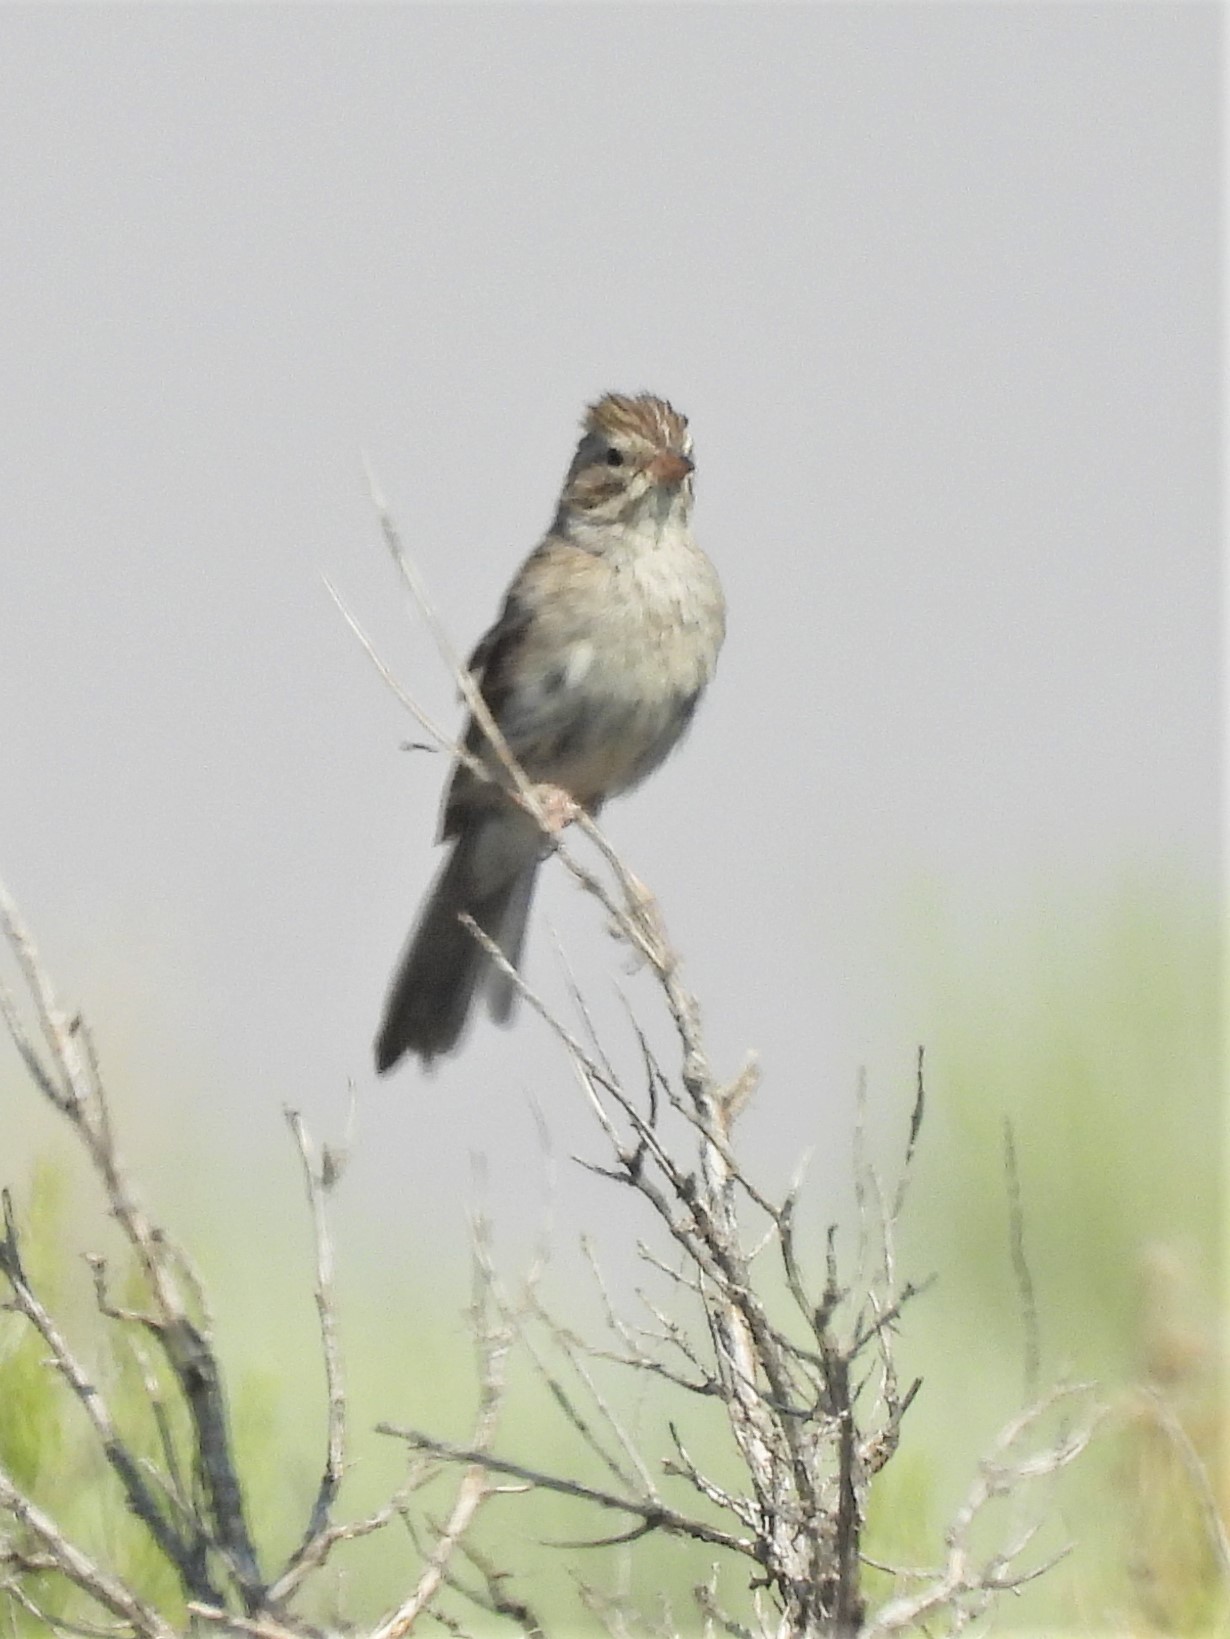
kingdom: Animalia
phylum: Chordata
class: Aves
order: Passeriformes
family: Passerellidae
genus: Spizella
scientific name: Spizella breweri
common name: Brewer's sparrow
